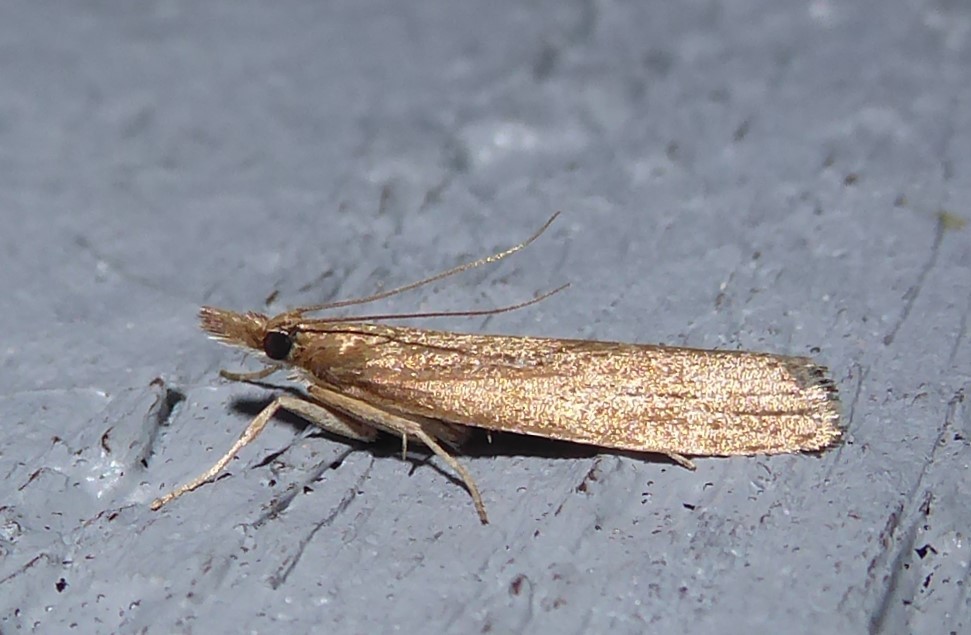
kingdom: Animalia
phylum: Arthropoda
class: Insecta
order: Lepidoptera
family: Crambidae
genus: Eudonia
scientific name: Eudonia octophora
